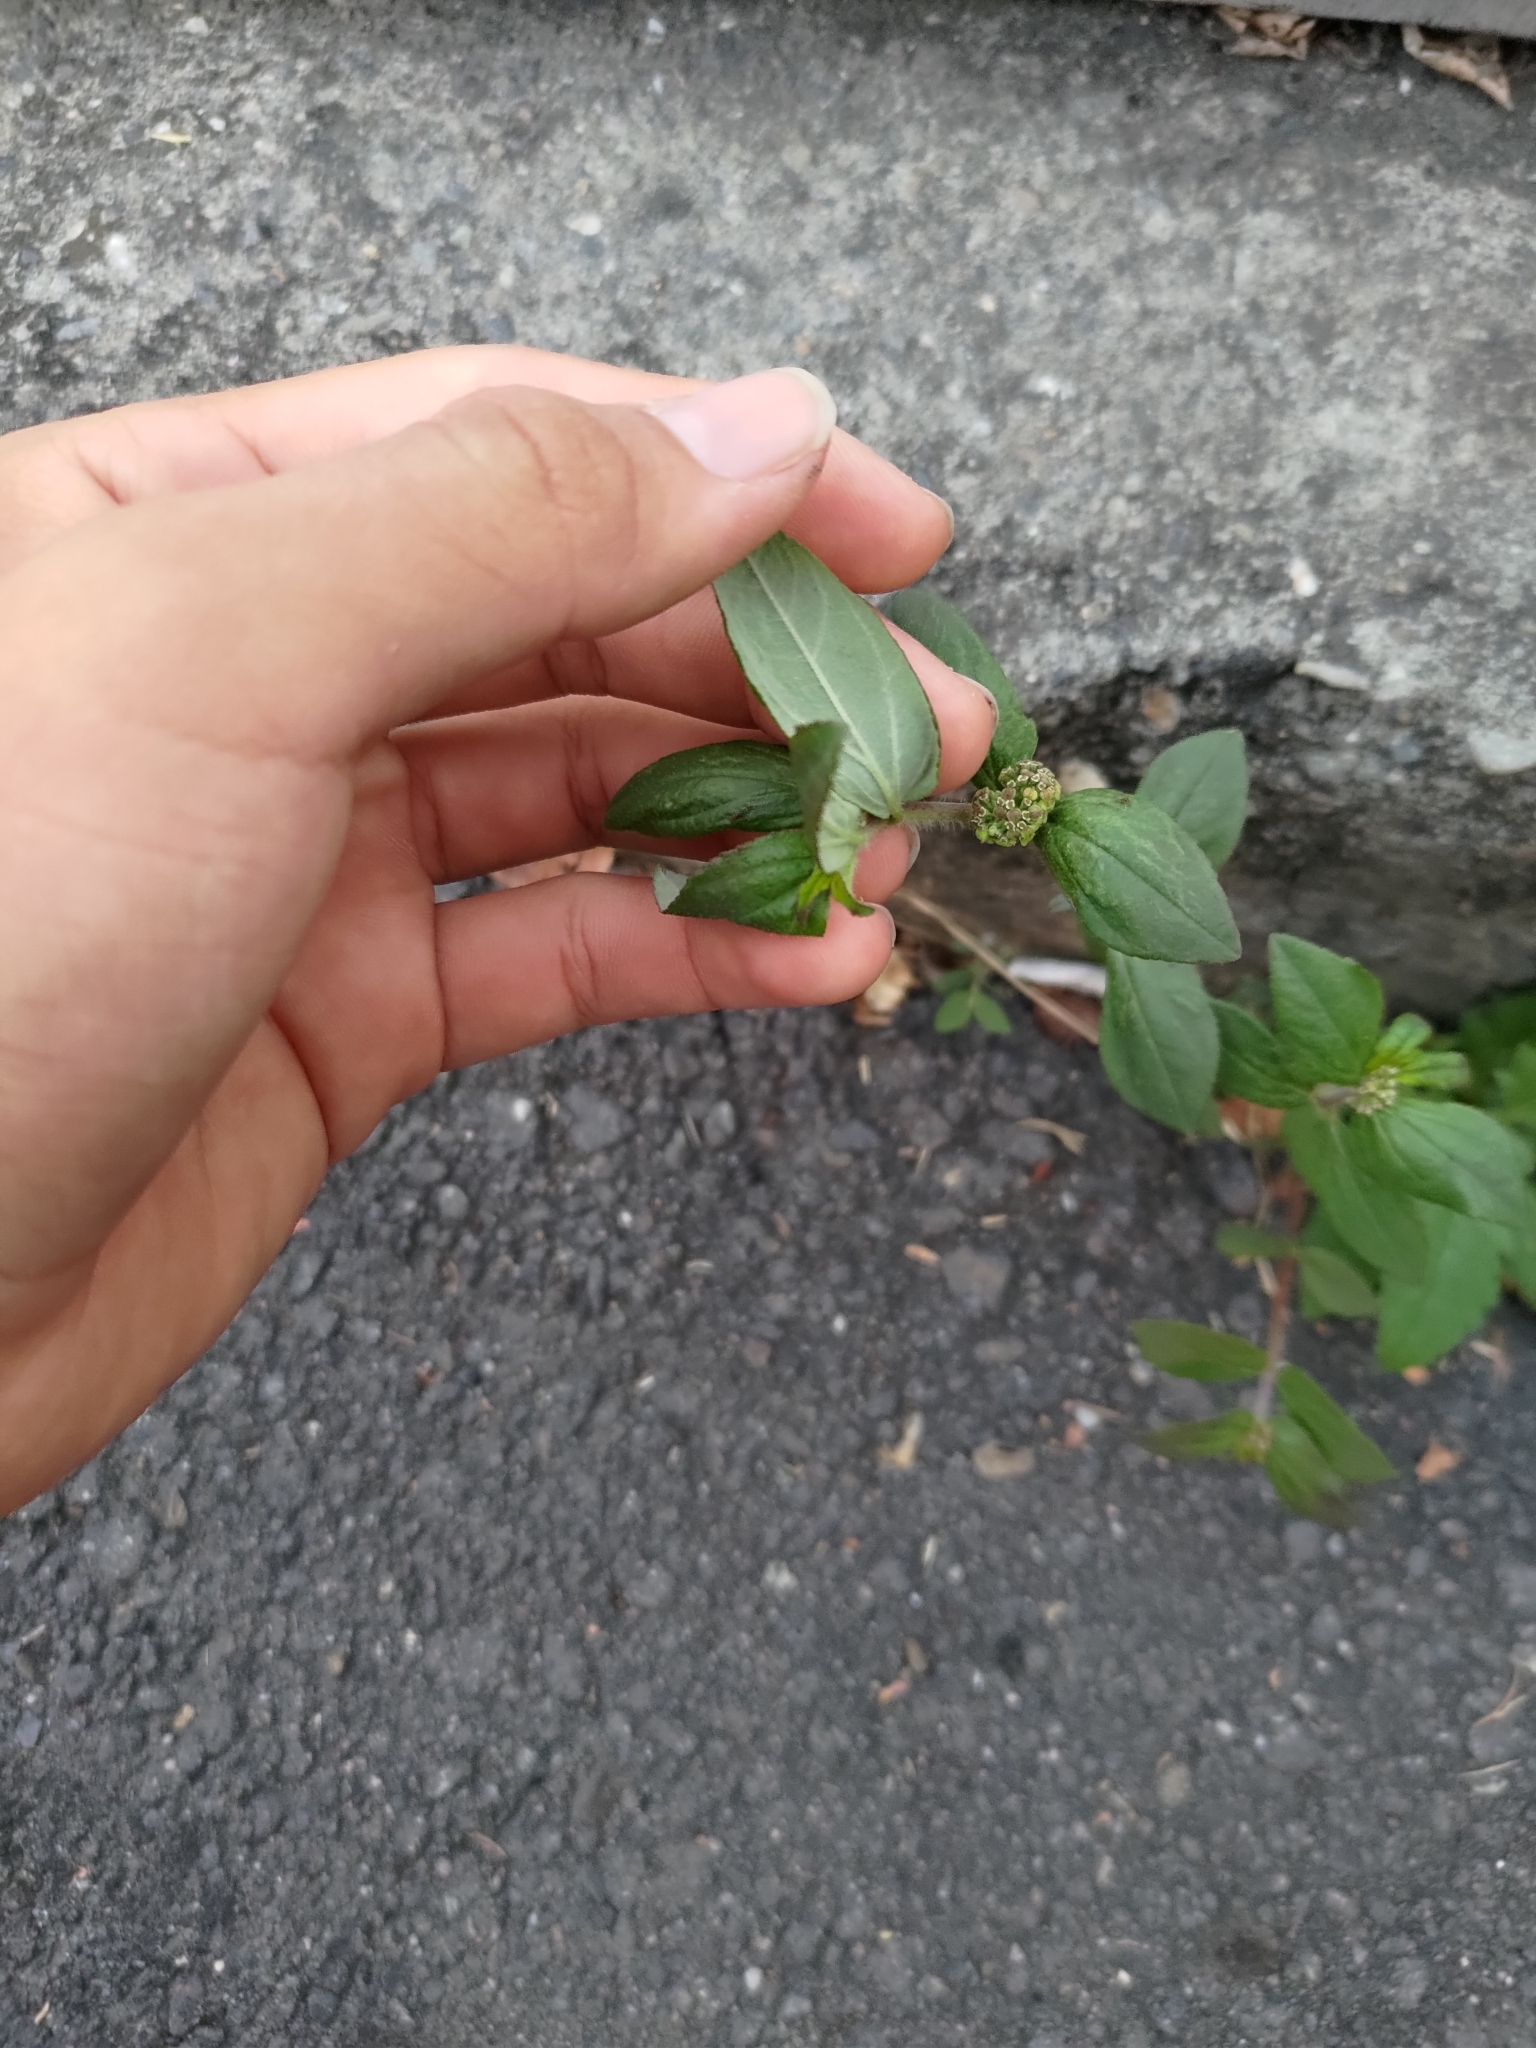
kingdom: Plantae
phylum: Tracheophyta
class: Magnoliopsida
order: Malpighiales
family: Euphorbiaceae
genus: Euphorbia
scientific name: Euphorbia hirta
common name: Pillpod sandmat
